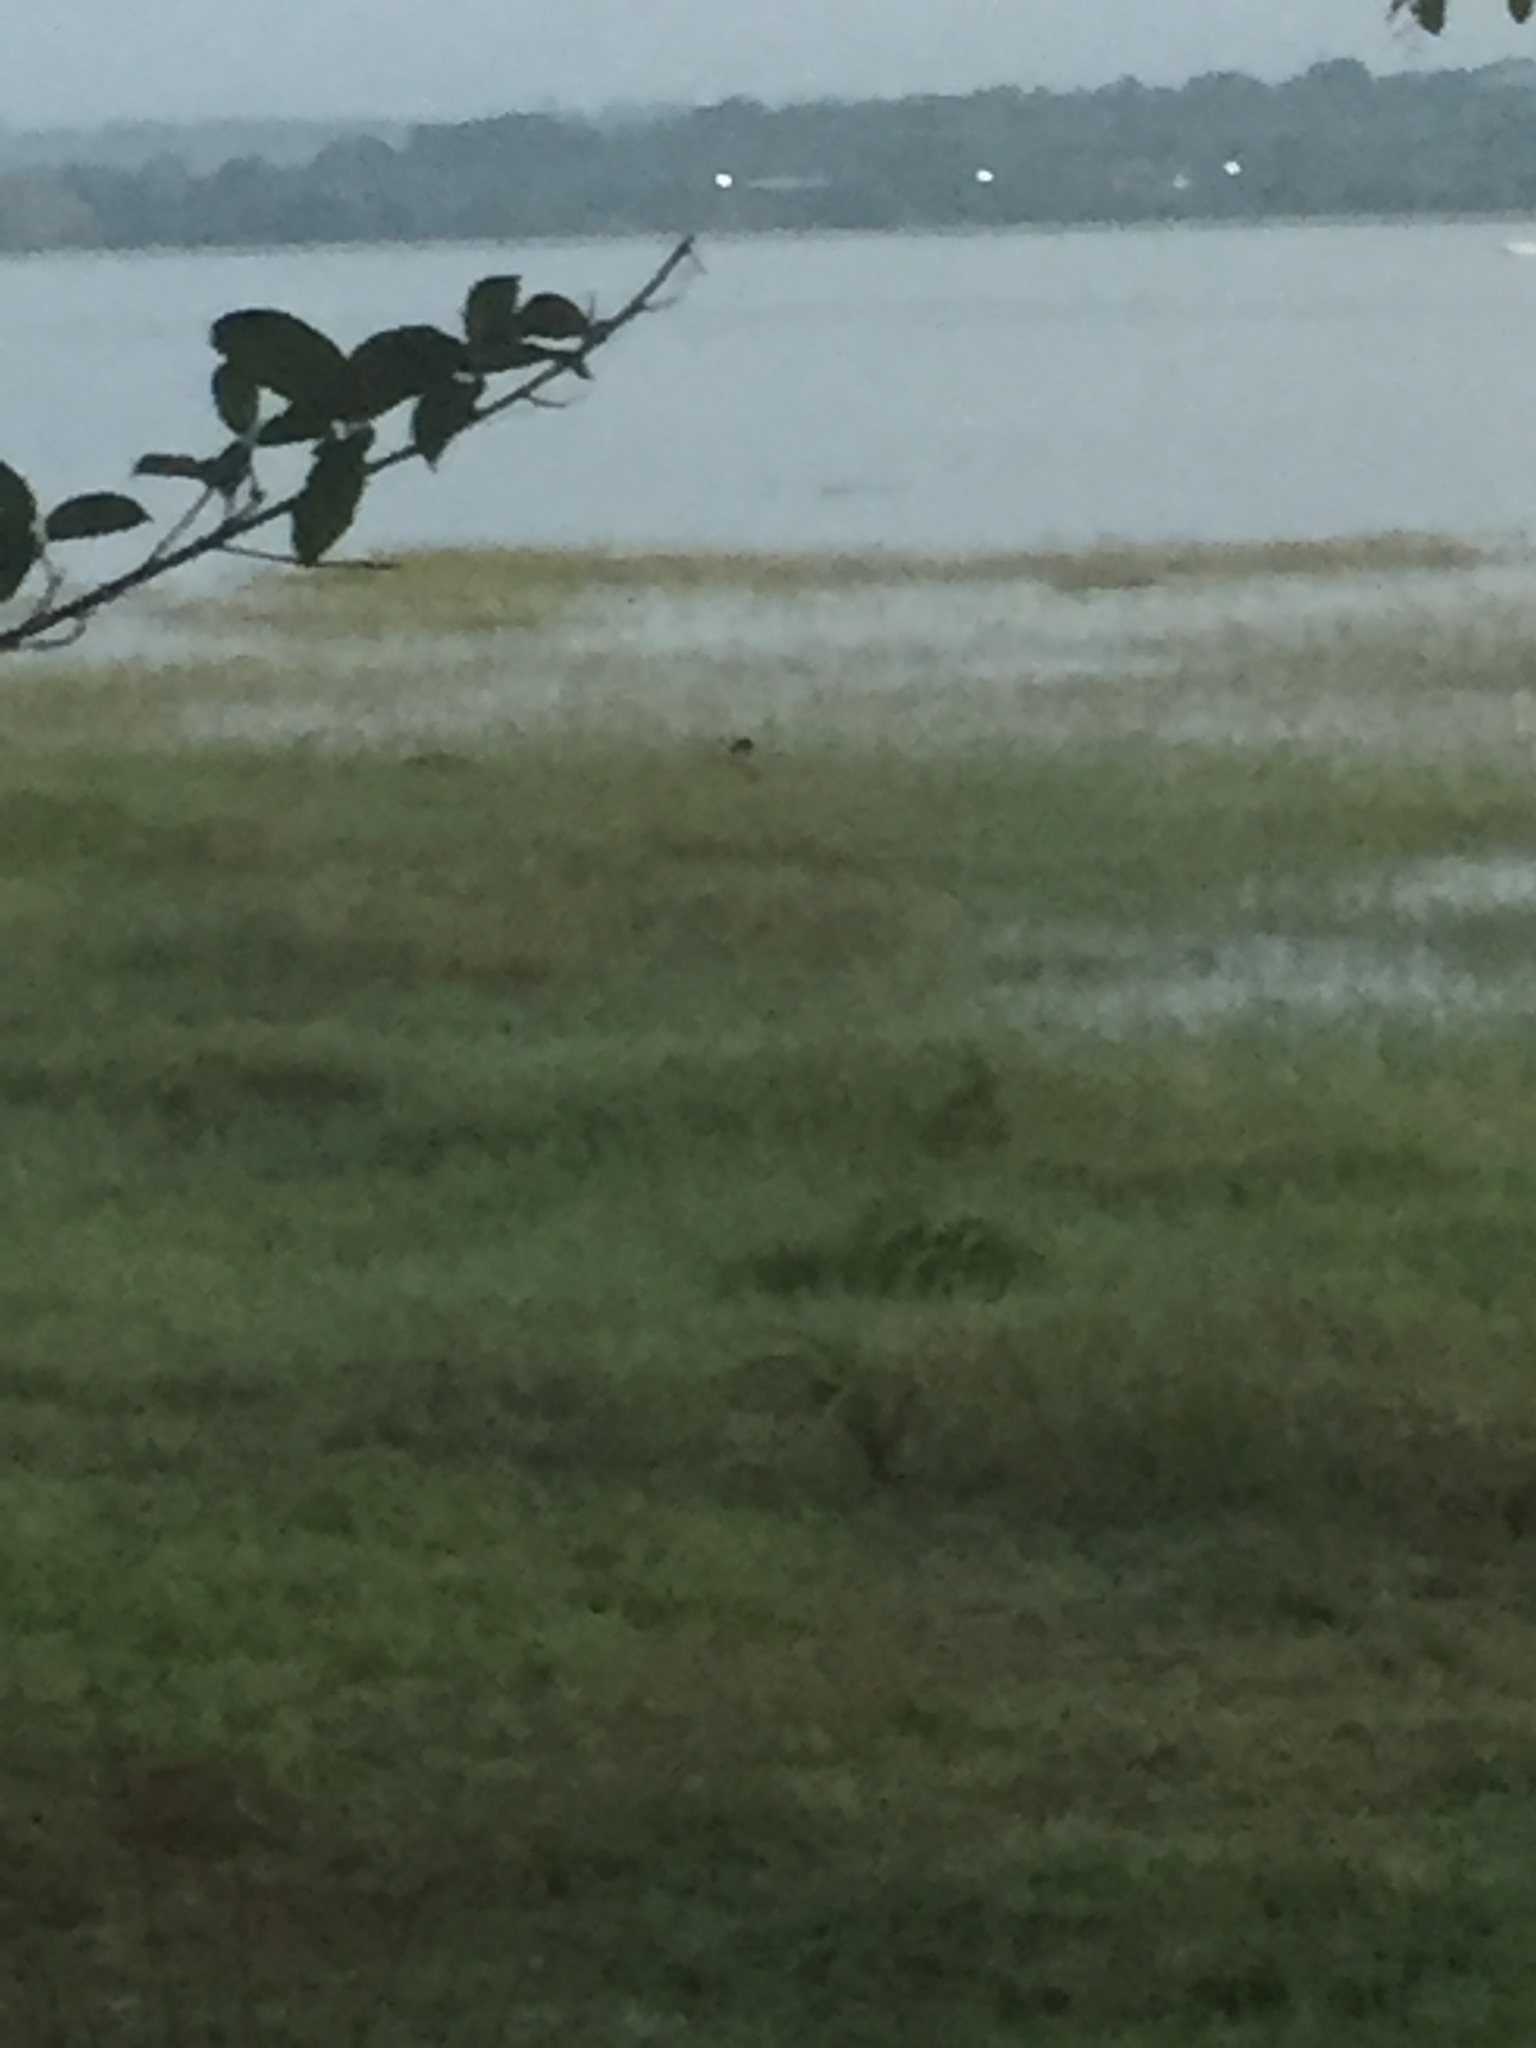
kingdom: Animalia
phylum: Chordata
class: Aves
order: Ciconiiformes
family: Ciconiidae
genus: Anastomus
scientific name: Anastomus oscitans
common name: Asian openbill
